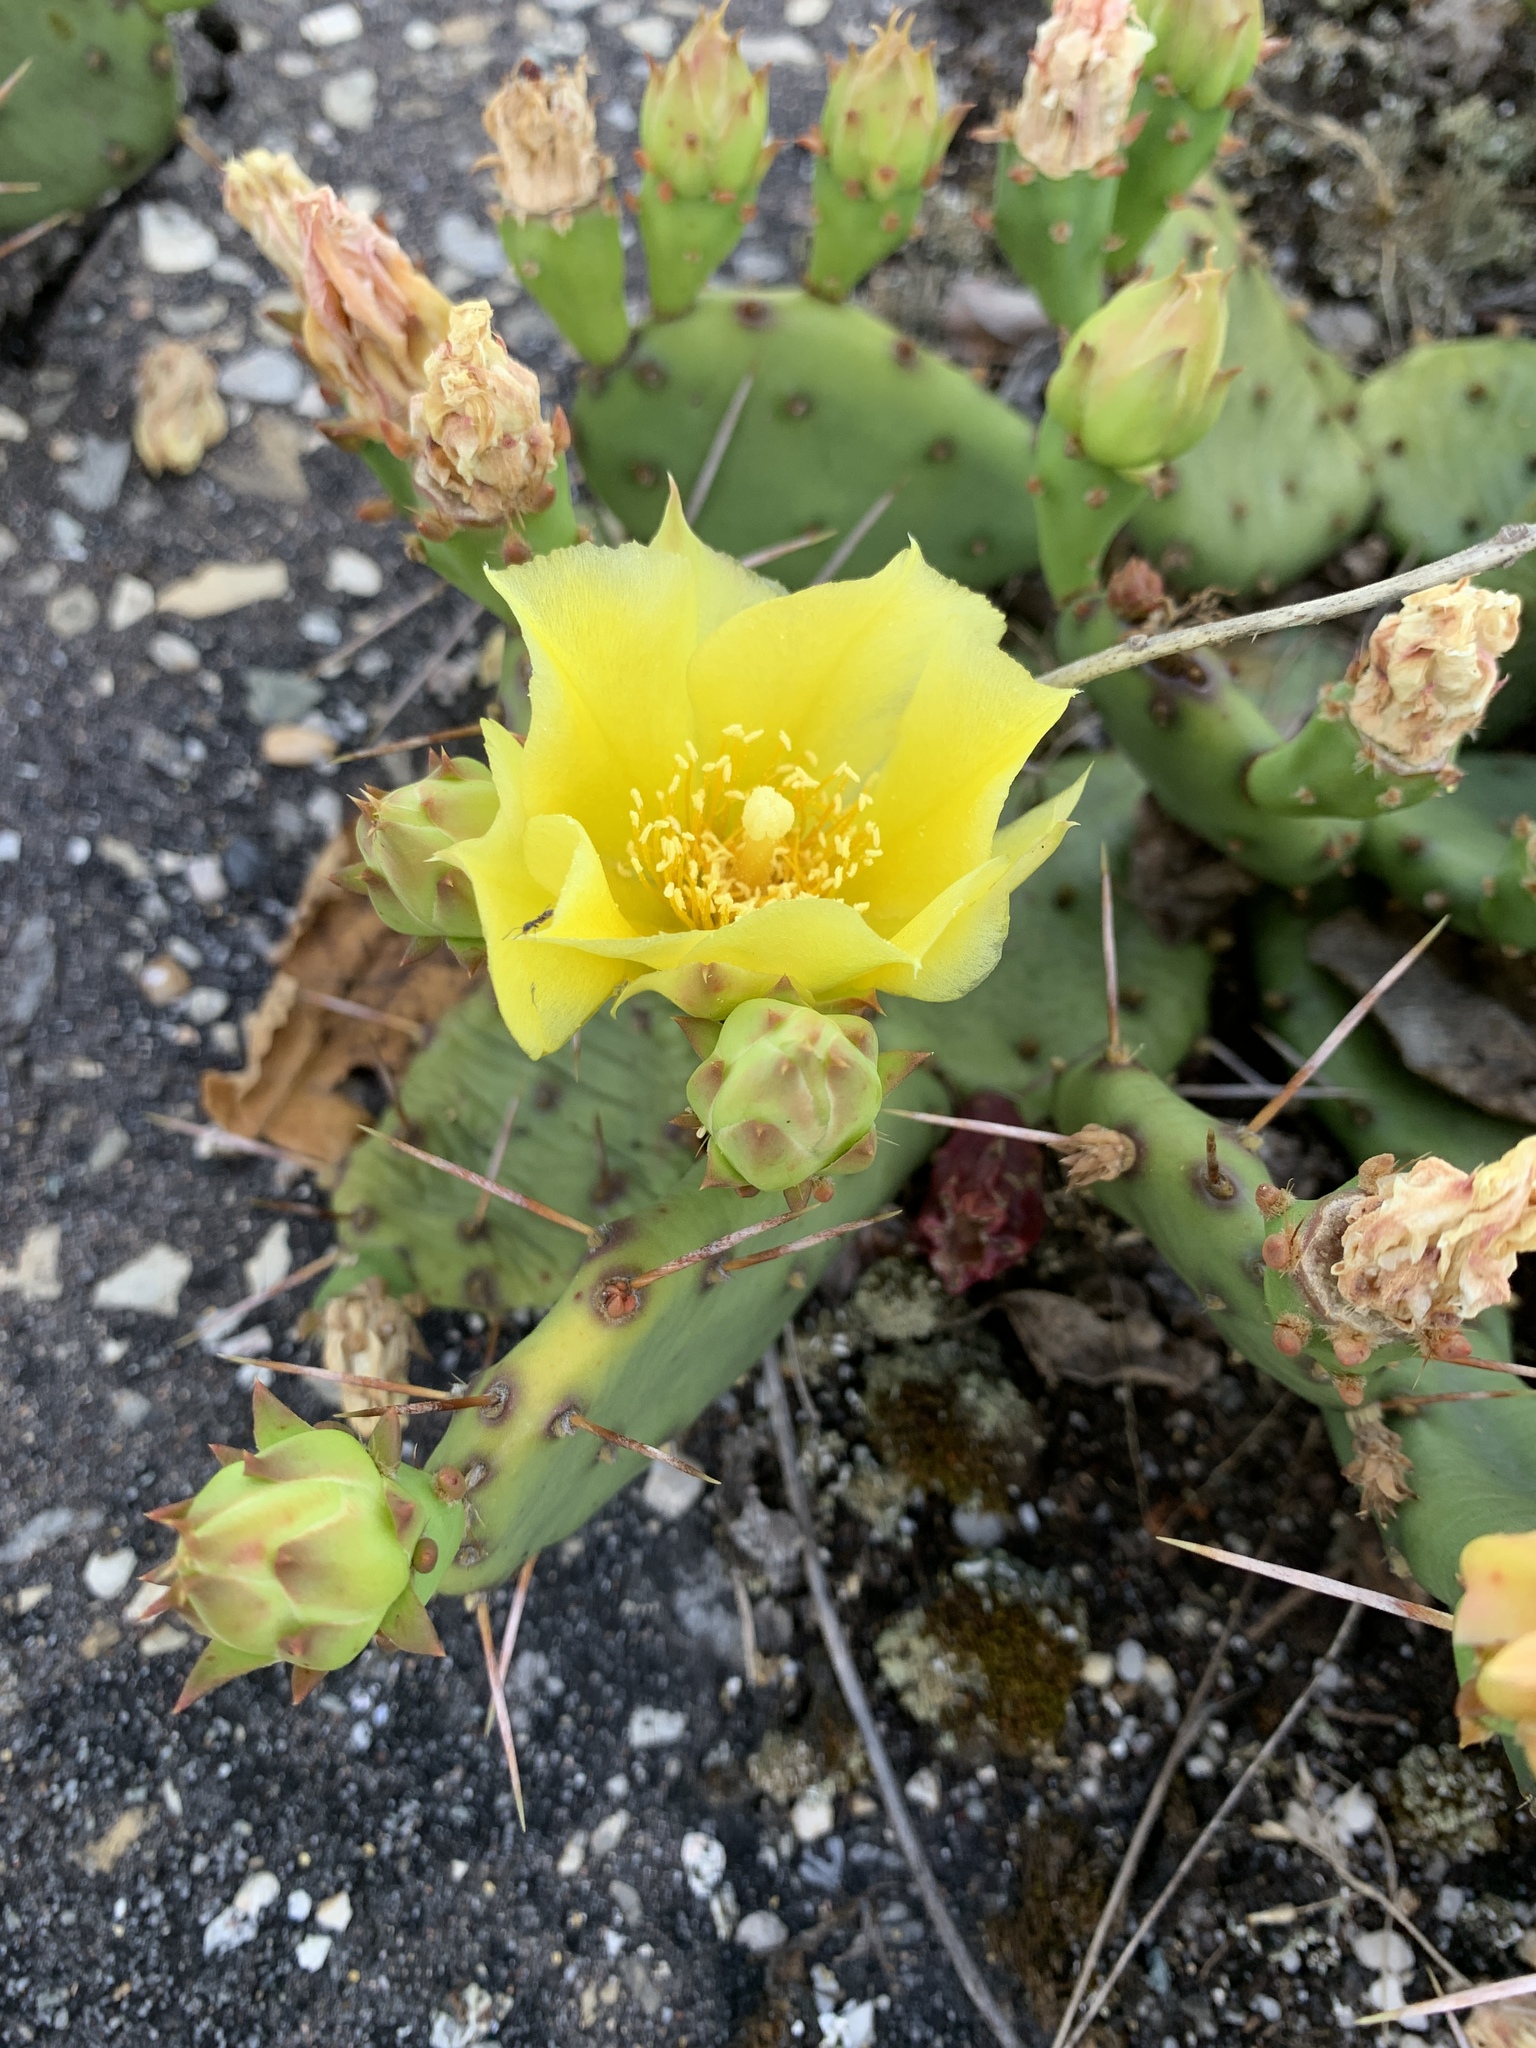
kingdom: Plantae
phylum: Tracheophyta
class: Magnoliopsida
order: Caryophyllales
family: Cactaceae
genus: Opuntia
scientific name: Opuntia mesacantha
